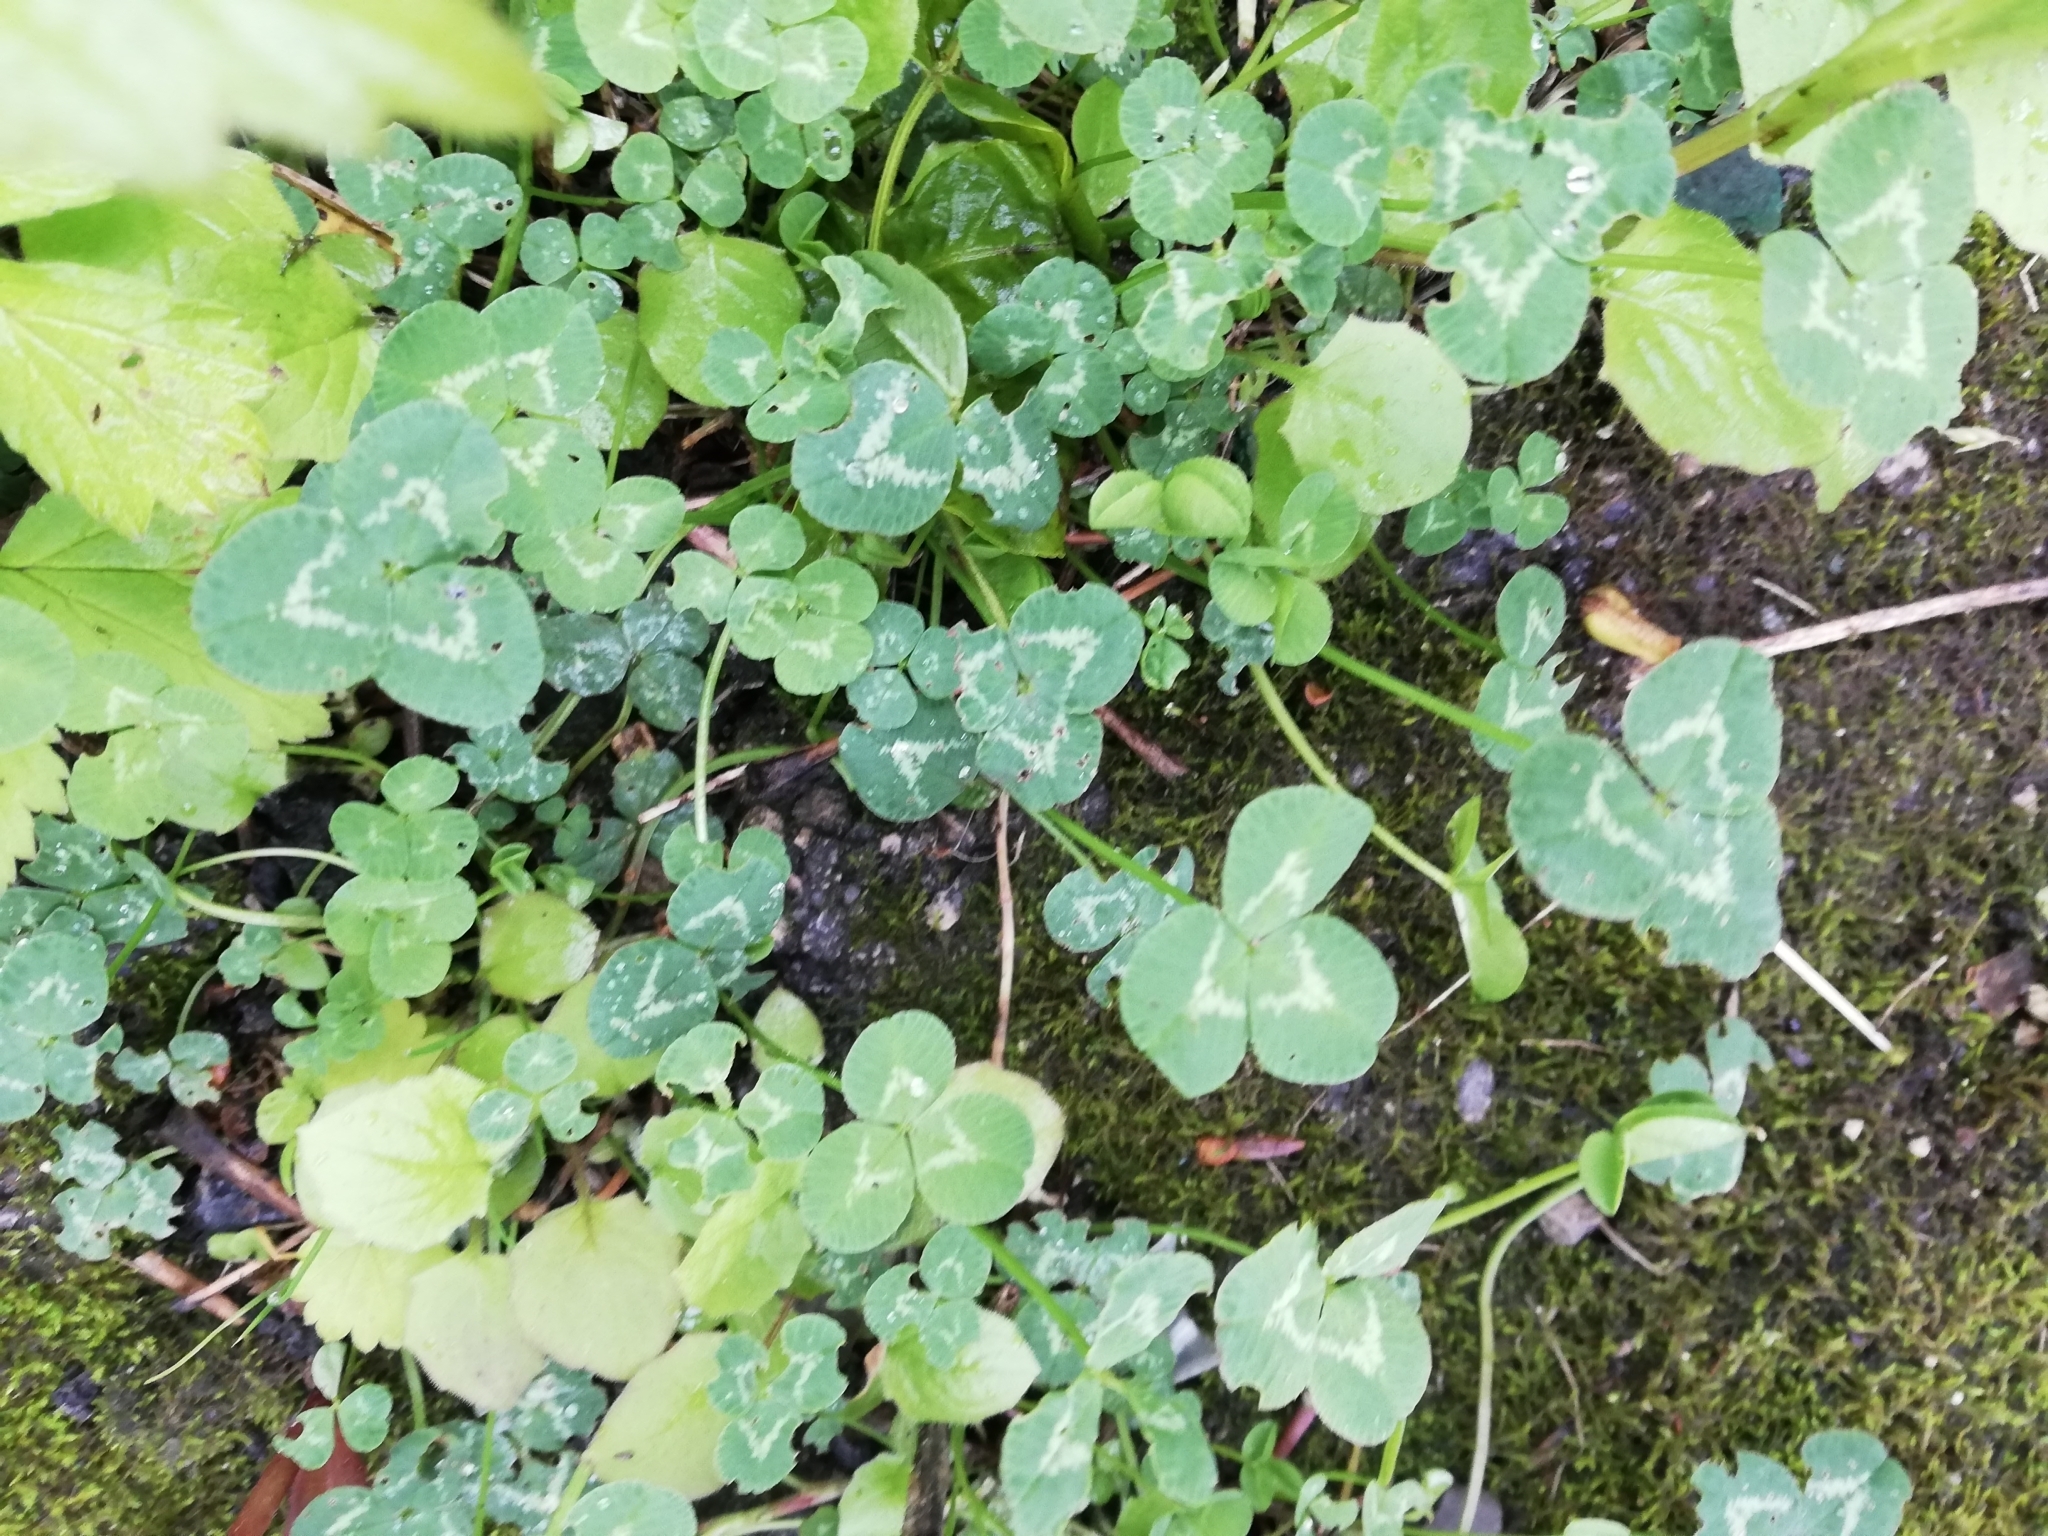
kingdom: Plantae
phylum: Tracheophyta
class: Magnoliopsida
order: Fabales
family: Fabaceae
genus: Trifolium
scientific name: Trifolium hybridum
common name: Alsike clover
